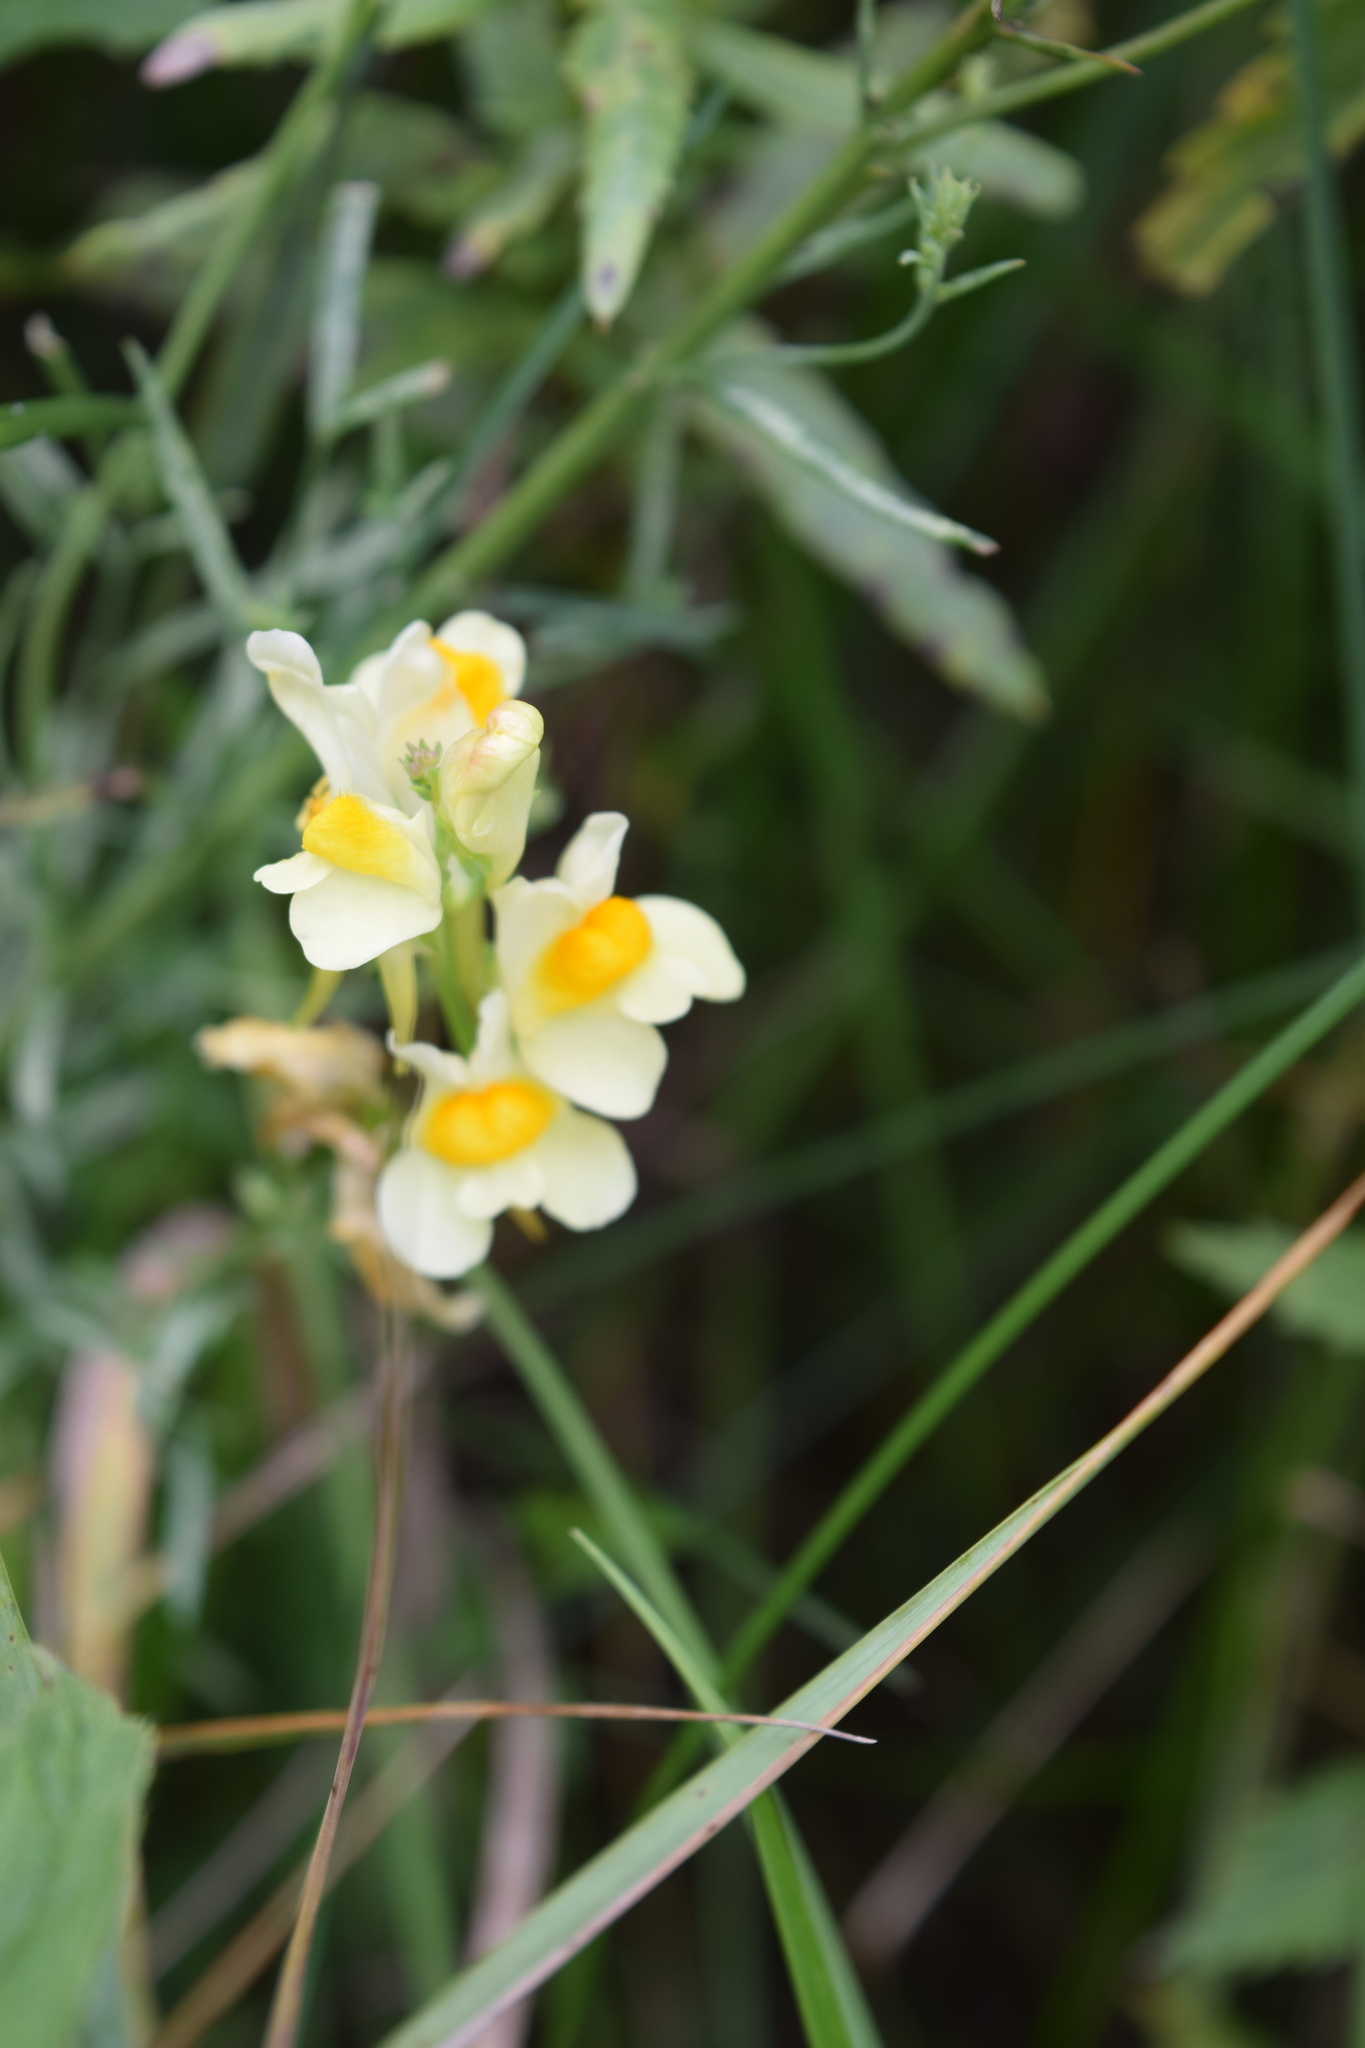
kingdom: Plantae
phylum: Tracheophyta
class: Magnoliopsida
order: Lamiales
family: Plantaginaceae
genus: Linaria
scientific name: Linaria vulgaris
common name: Butter and eggs
